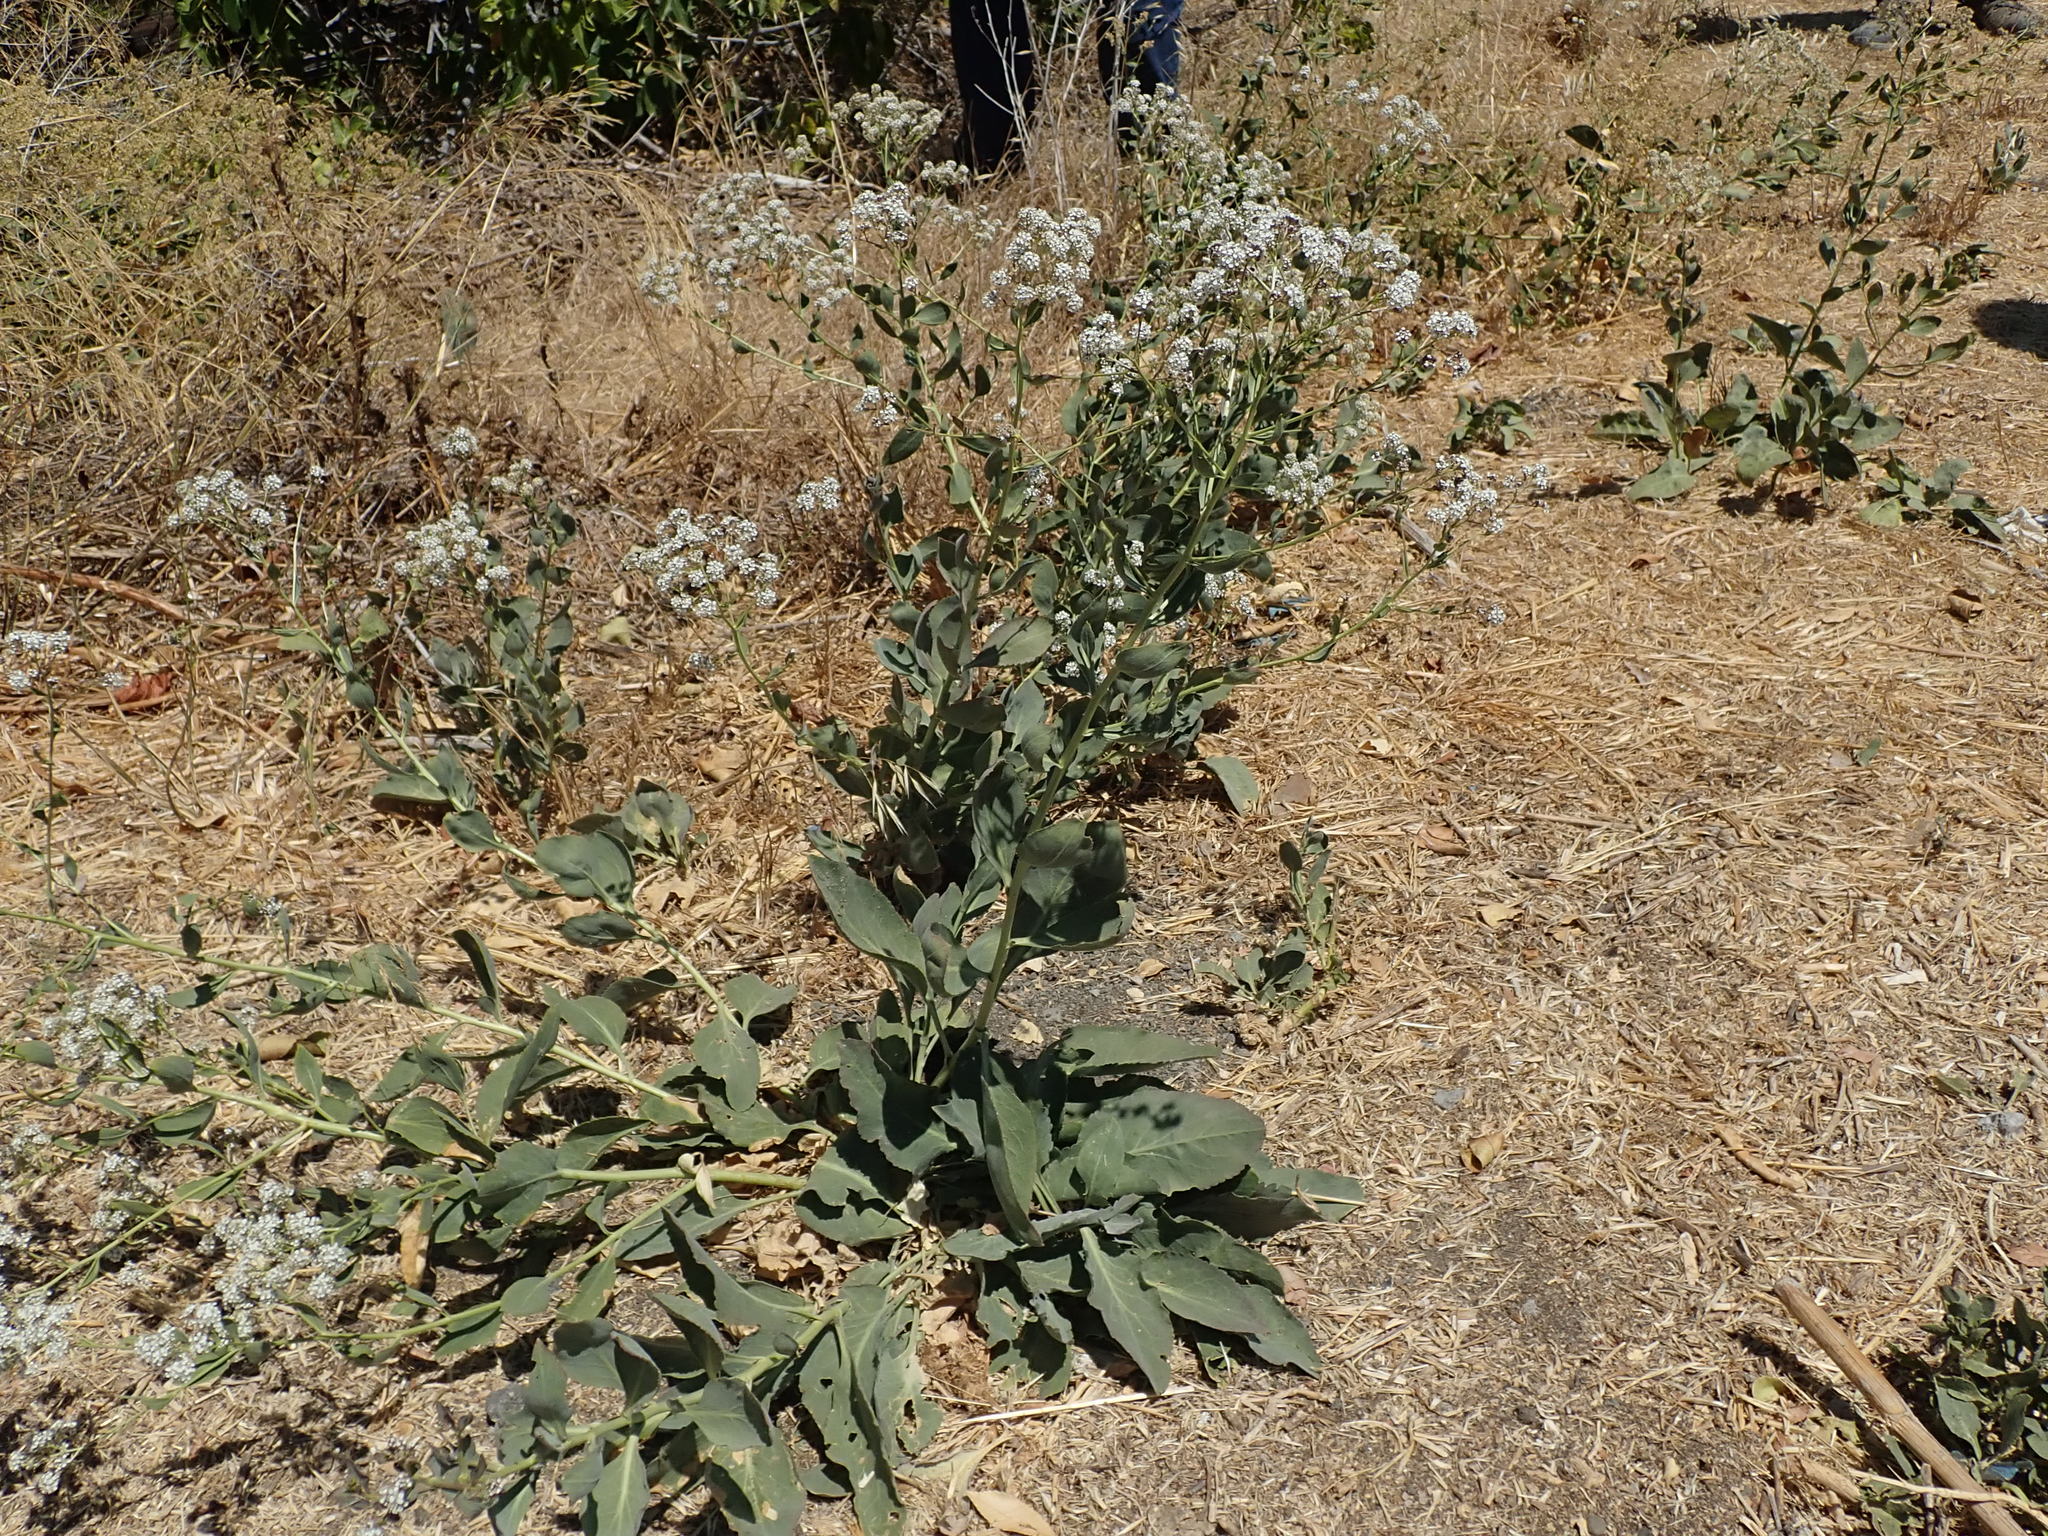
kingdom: Plantae
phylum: Tracheophyta
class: Magnoliopsida
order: Brassicales
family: Brassicaceae
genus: Lepidium
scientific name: Lepidium latifolium
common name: Dittander
